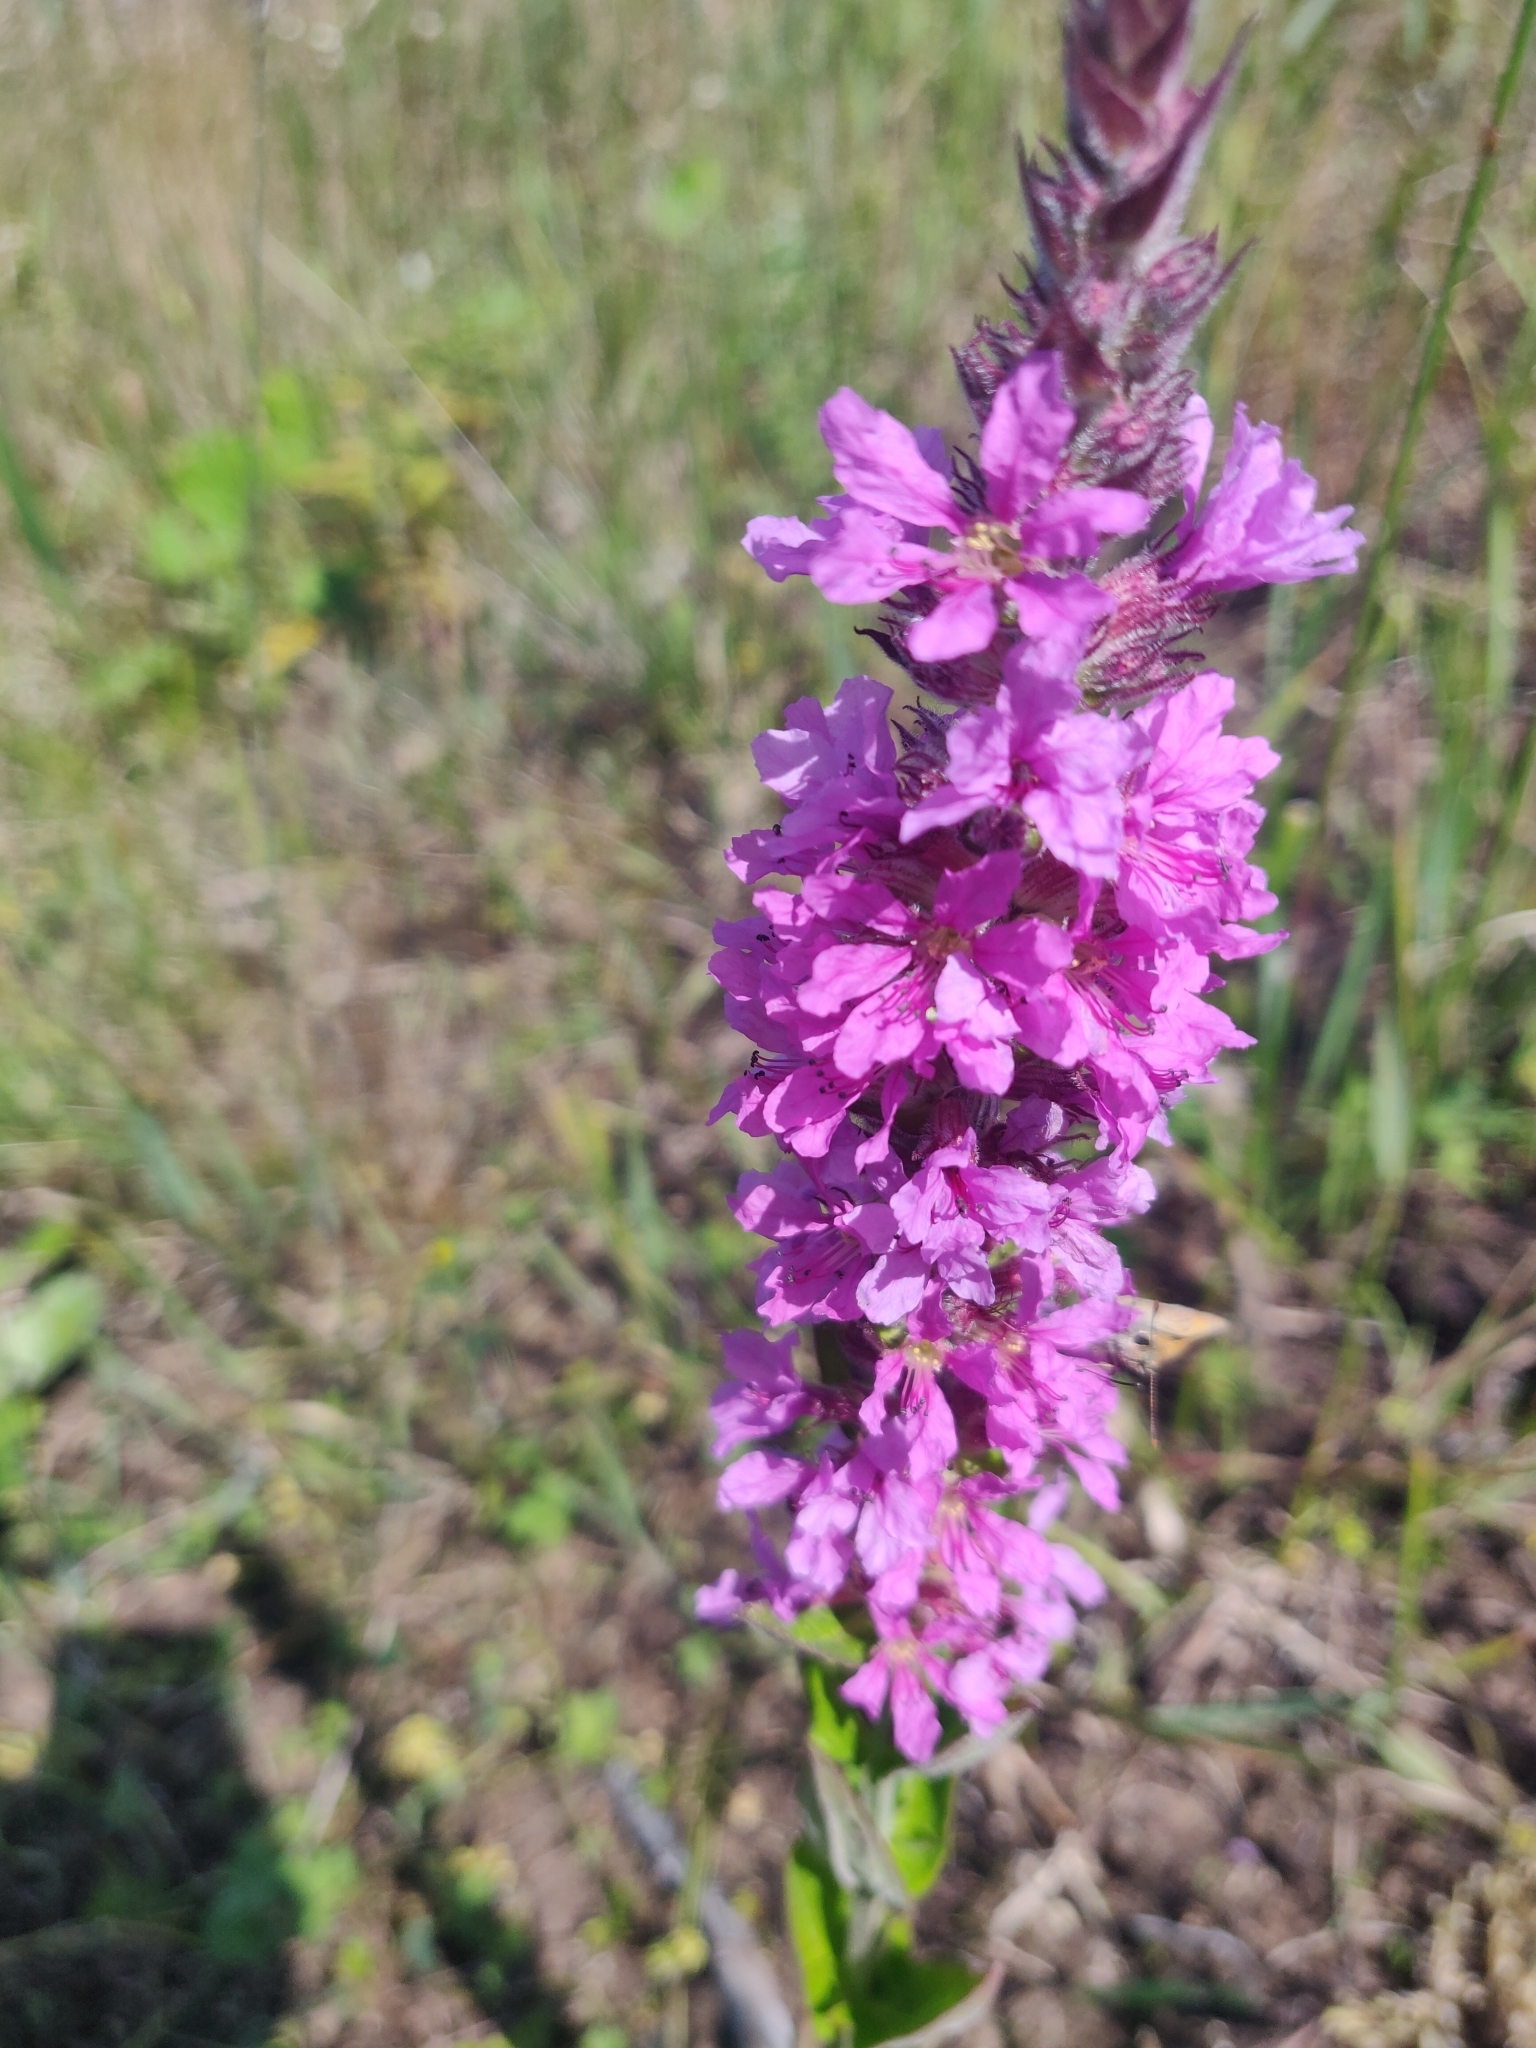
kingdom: Plantae
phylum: Tracheophyta
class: Magnoliopsida
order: Myrtales
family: Lythraceae
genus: Lythrum
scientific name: Lythrum salicaria
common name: Purple loosestrife
